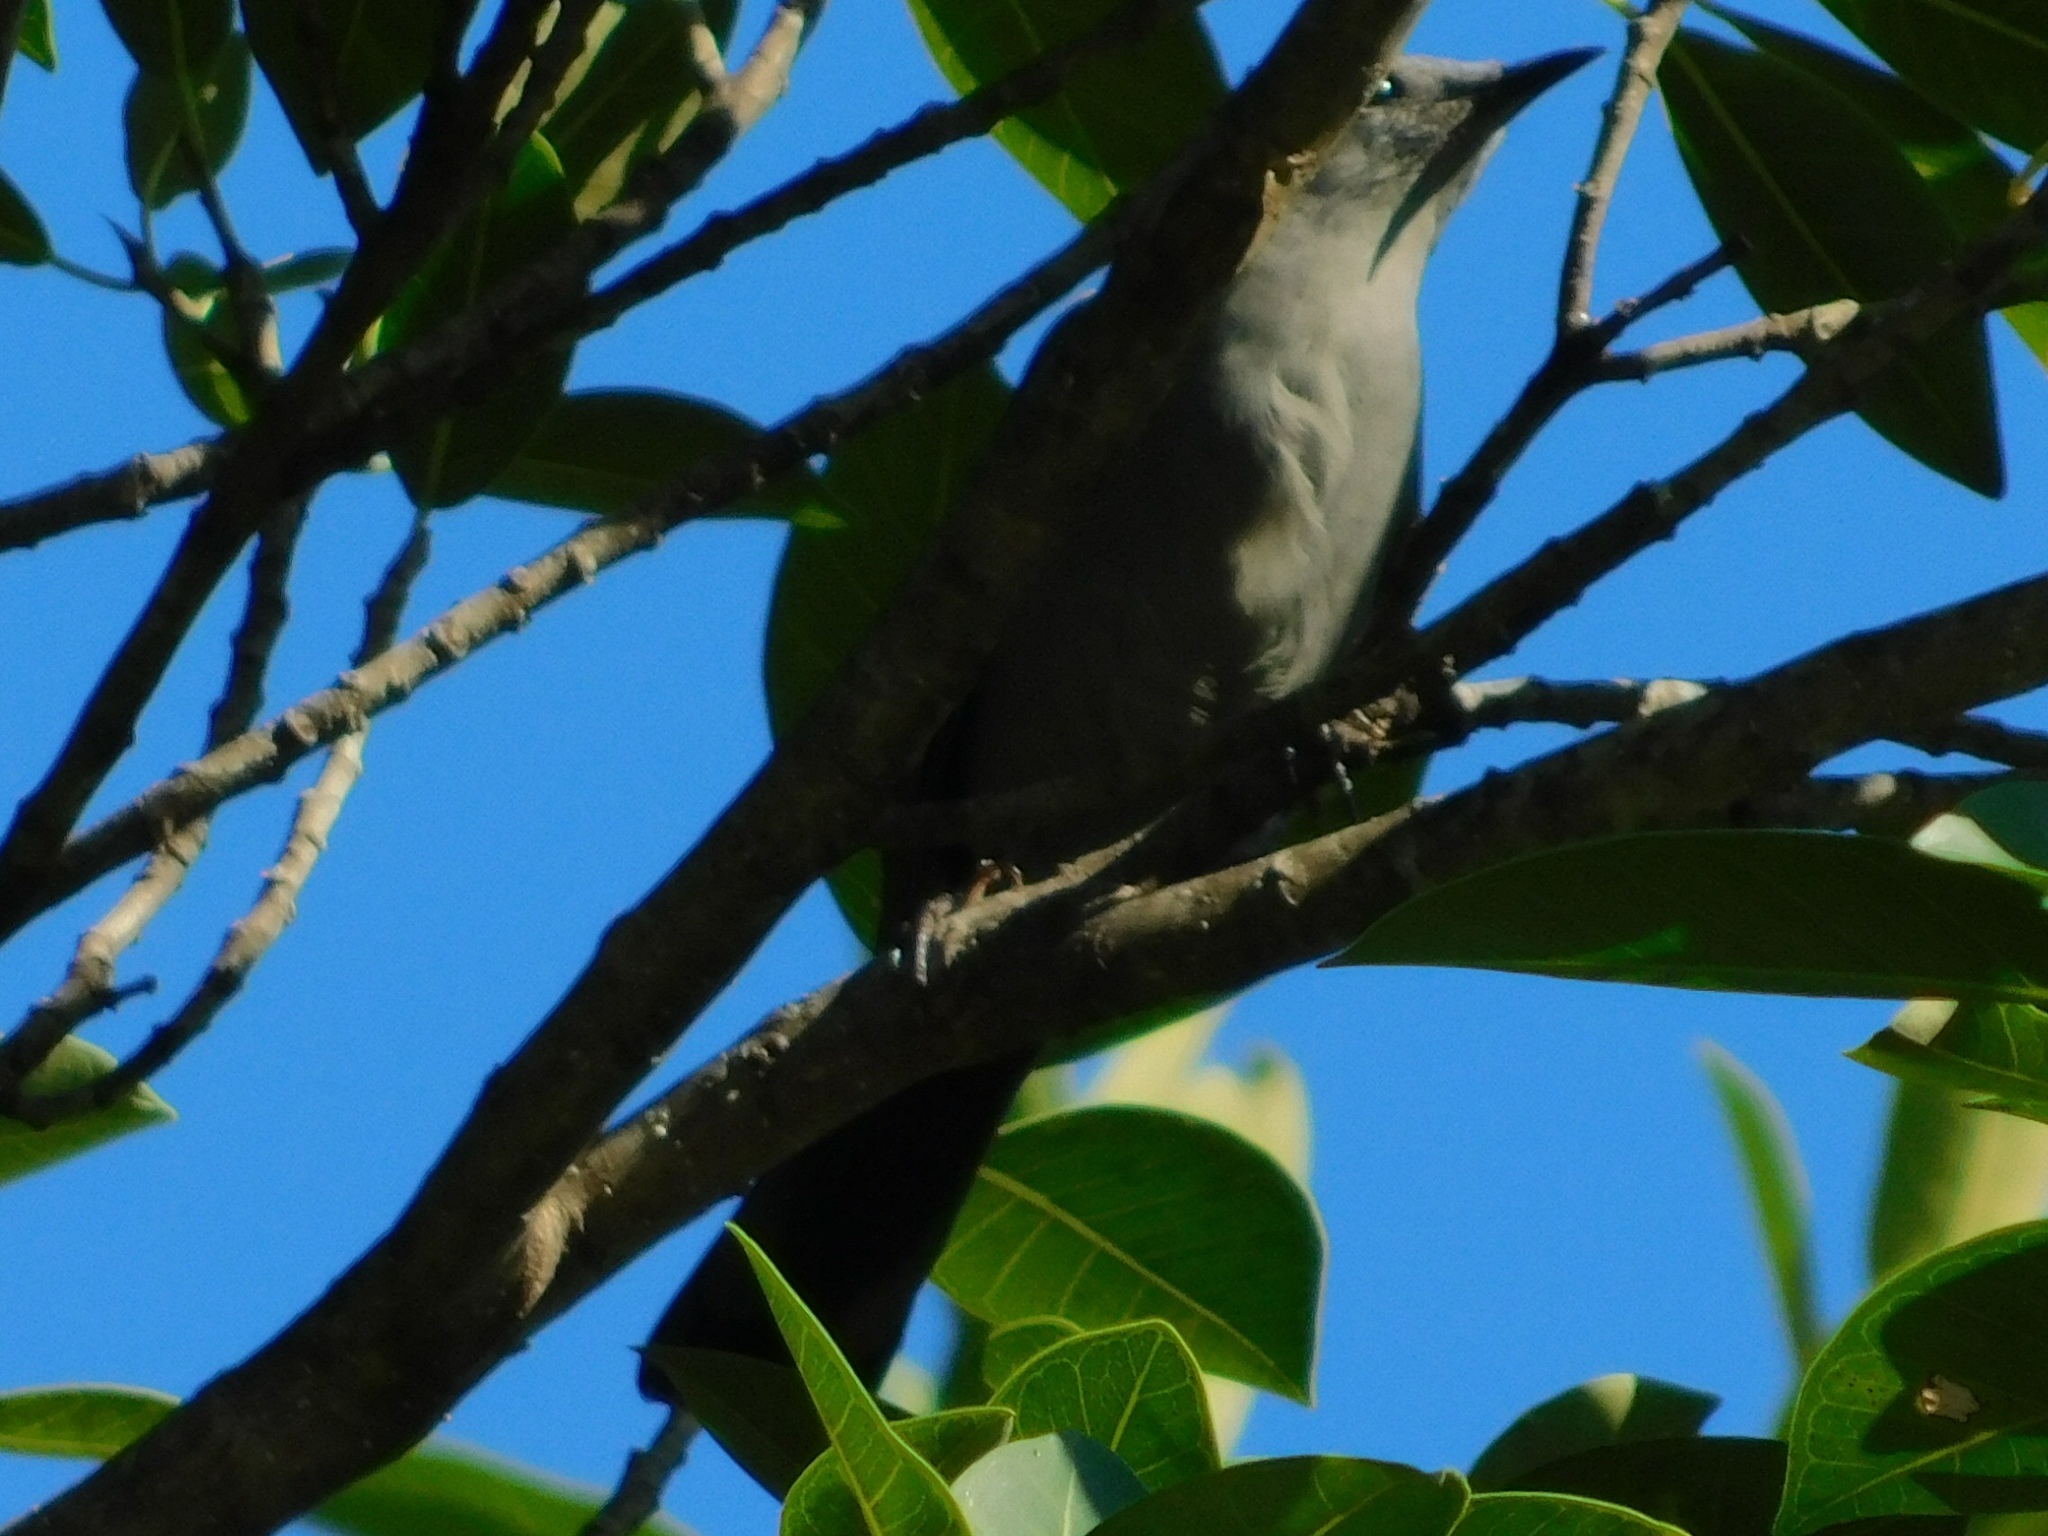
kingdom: Animalia
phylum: Chordata
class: Aves
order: Passeriformes
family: Mimidae
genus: Dumetella
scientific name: Dumetella carolinensis
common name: Gray catbird
